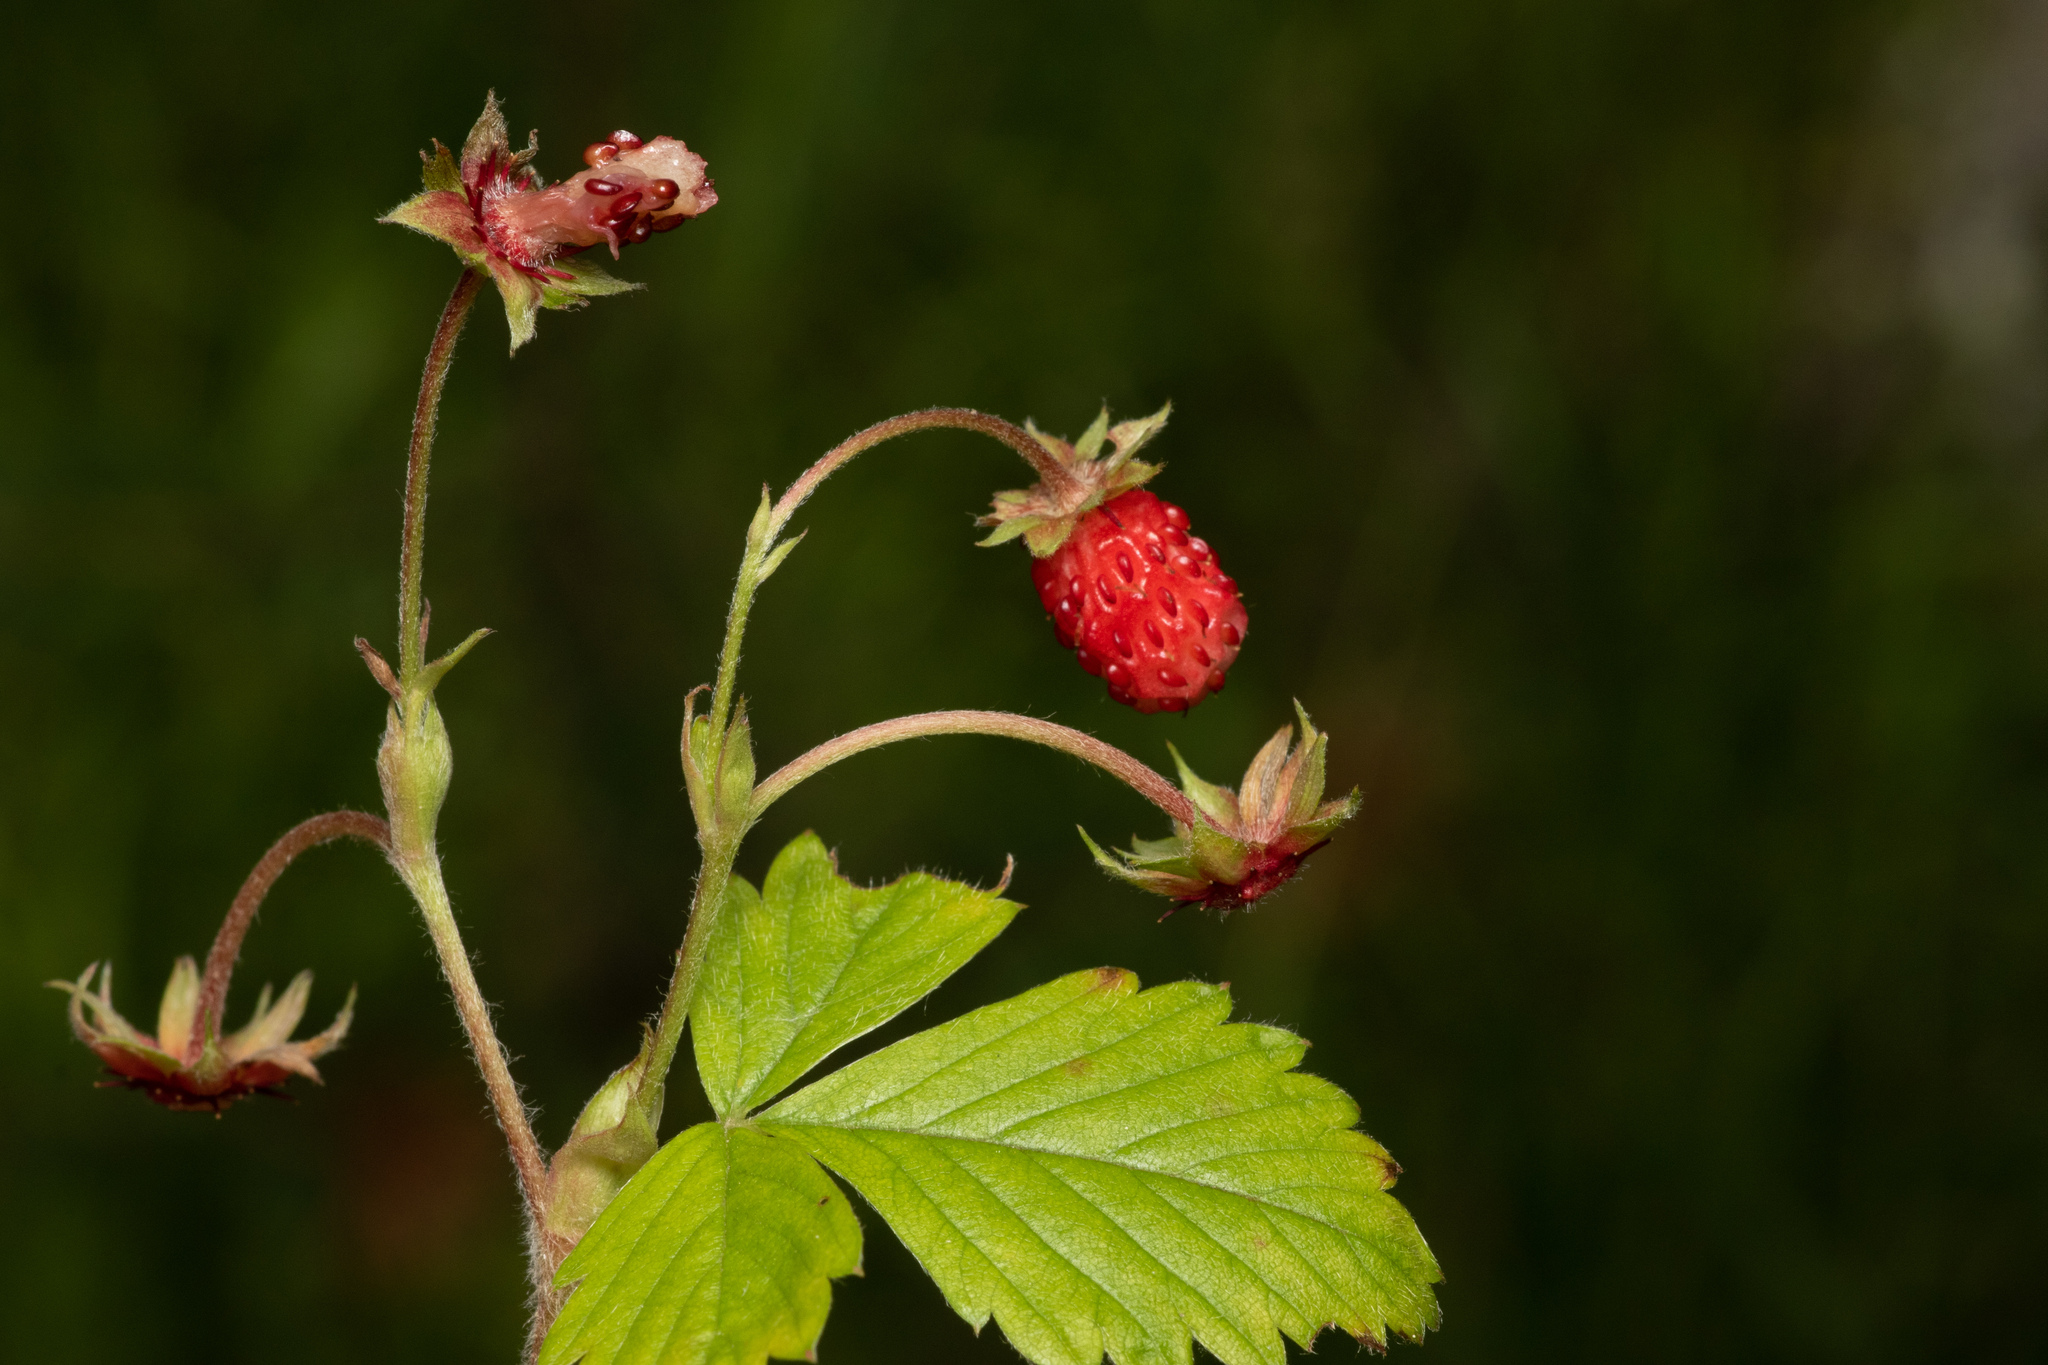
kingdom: Plantae
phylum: Tracheophyta
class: Magnoliopsida
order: Rosales
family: Rosaceae
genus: Fragaria
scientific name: Fragaria vesca
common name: Wild strawberry
